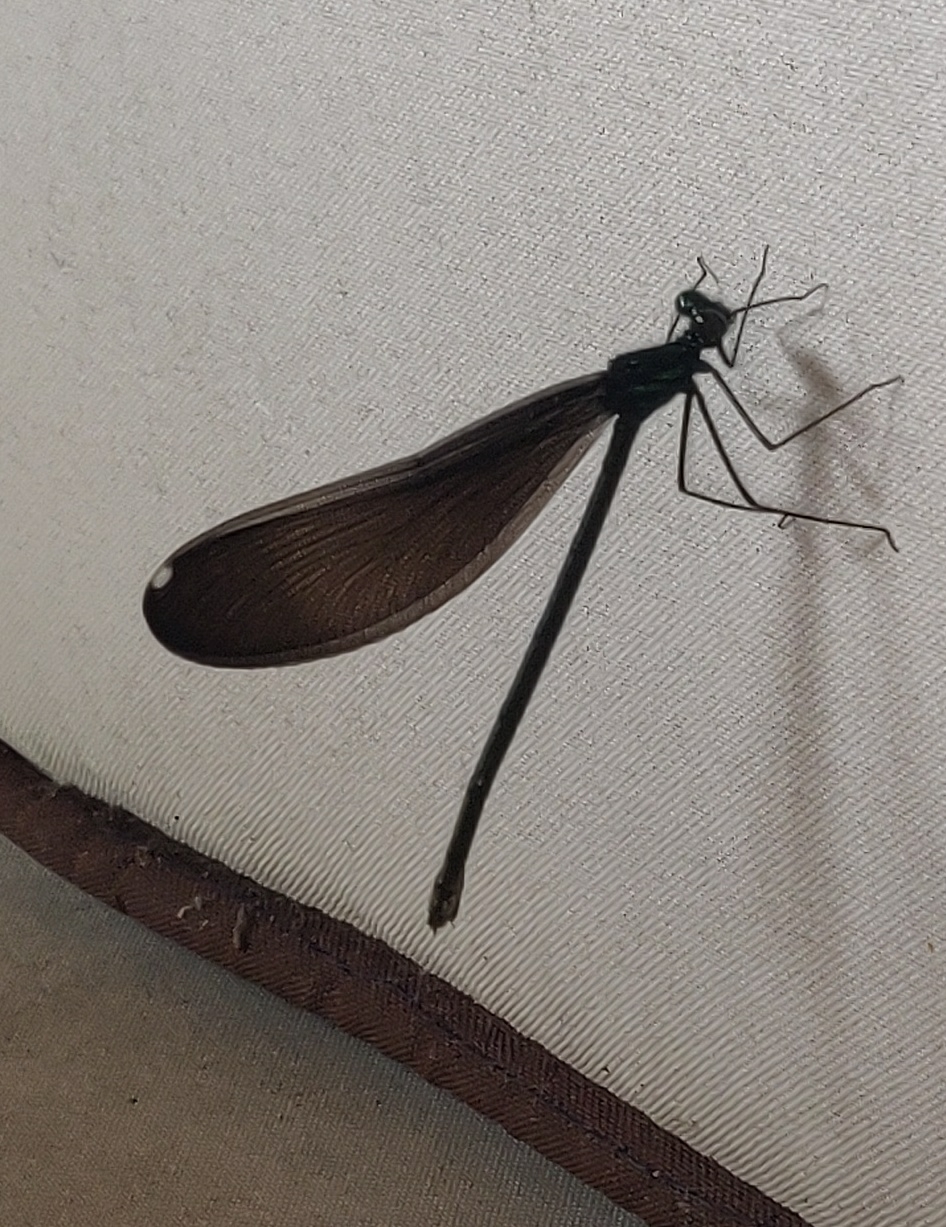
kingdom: Animalia
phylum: Arthropoda
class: Insecta
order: Odonata
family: Calopterygidae
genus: Calopteryx
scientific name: Calopteryx maculata
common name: Ebony jewelwing
